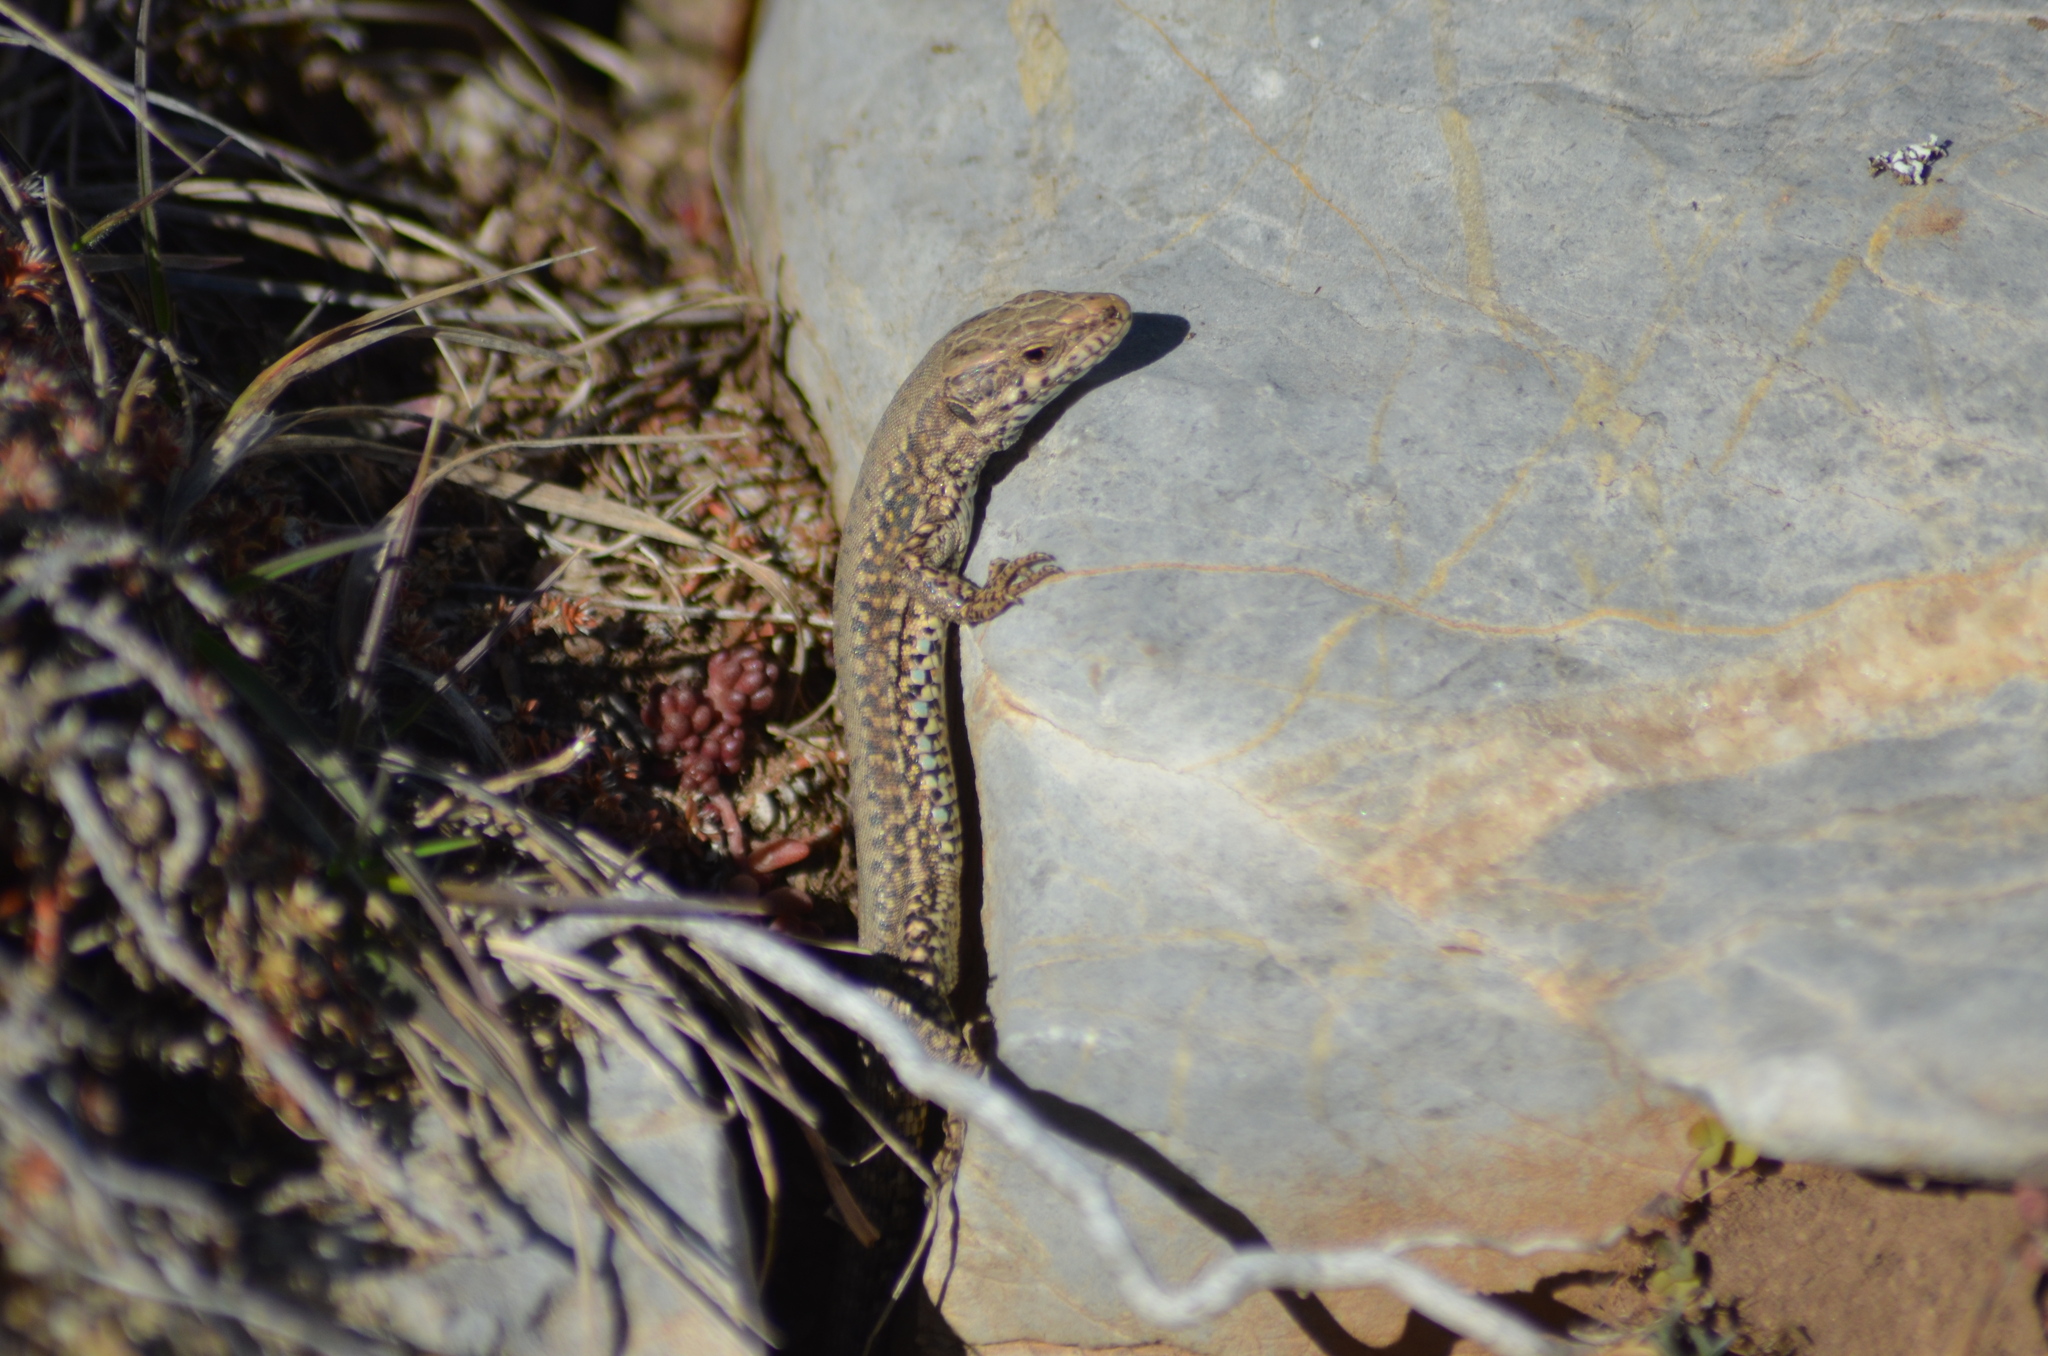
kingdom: Animalia
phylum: Chordata
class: Squamata
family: Lacertidae
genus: Podarcis
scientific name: Podarcis muralis
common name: Common wall lizard
